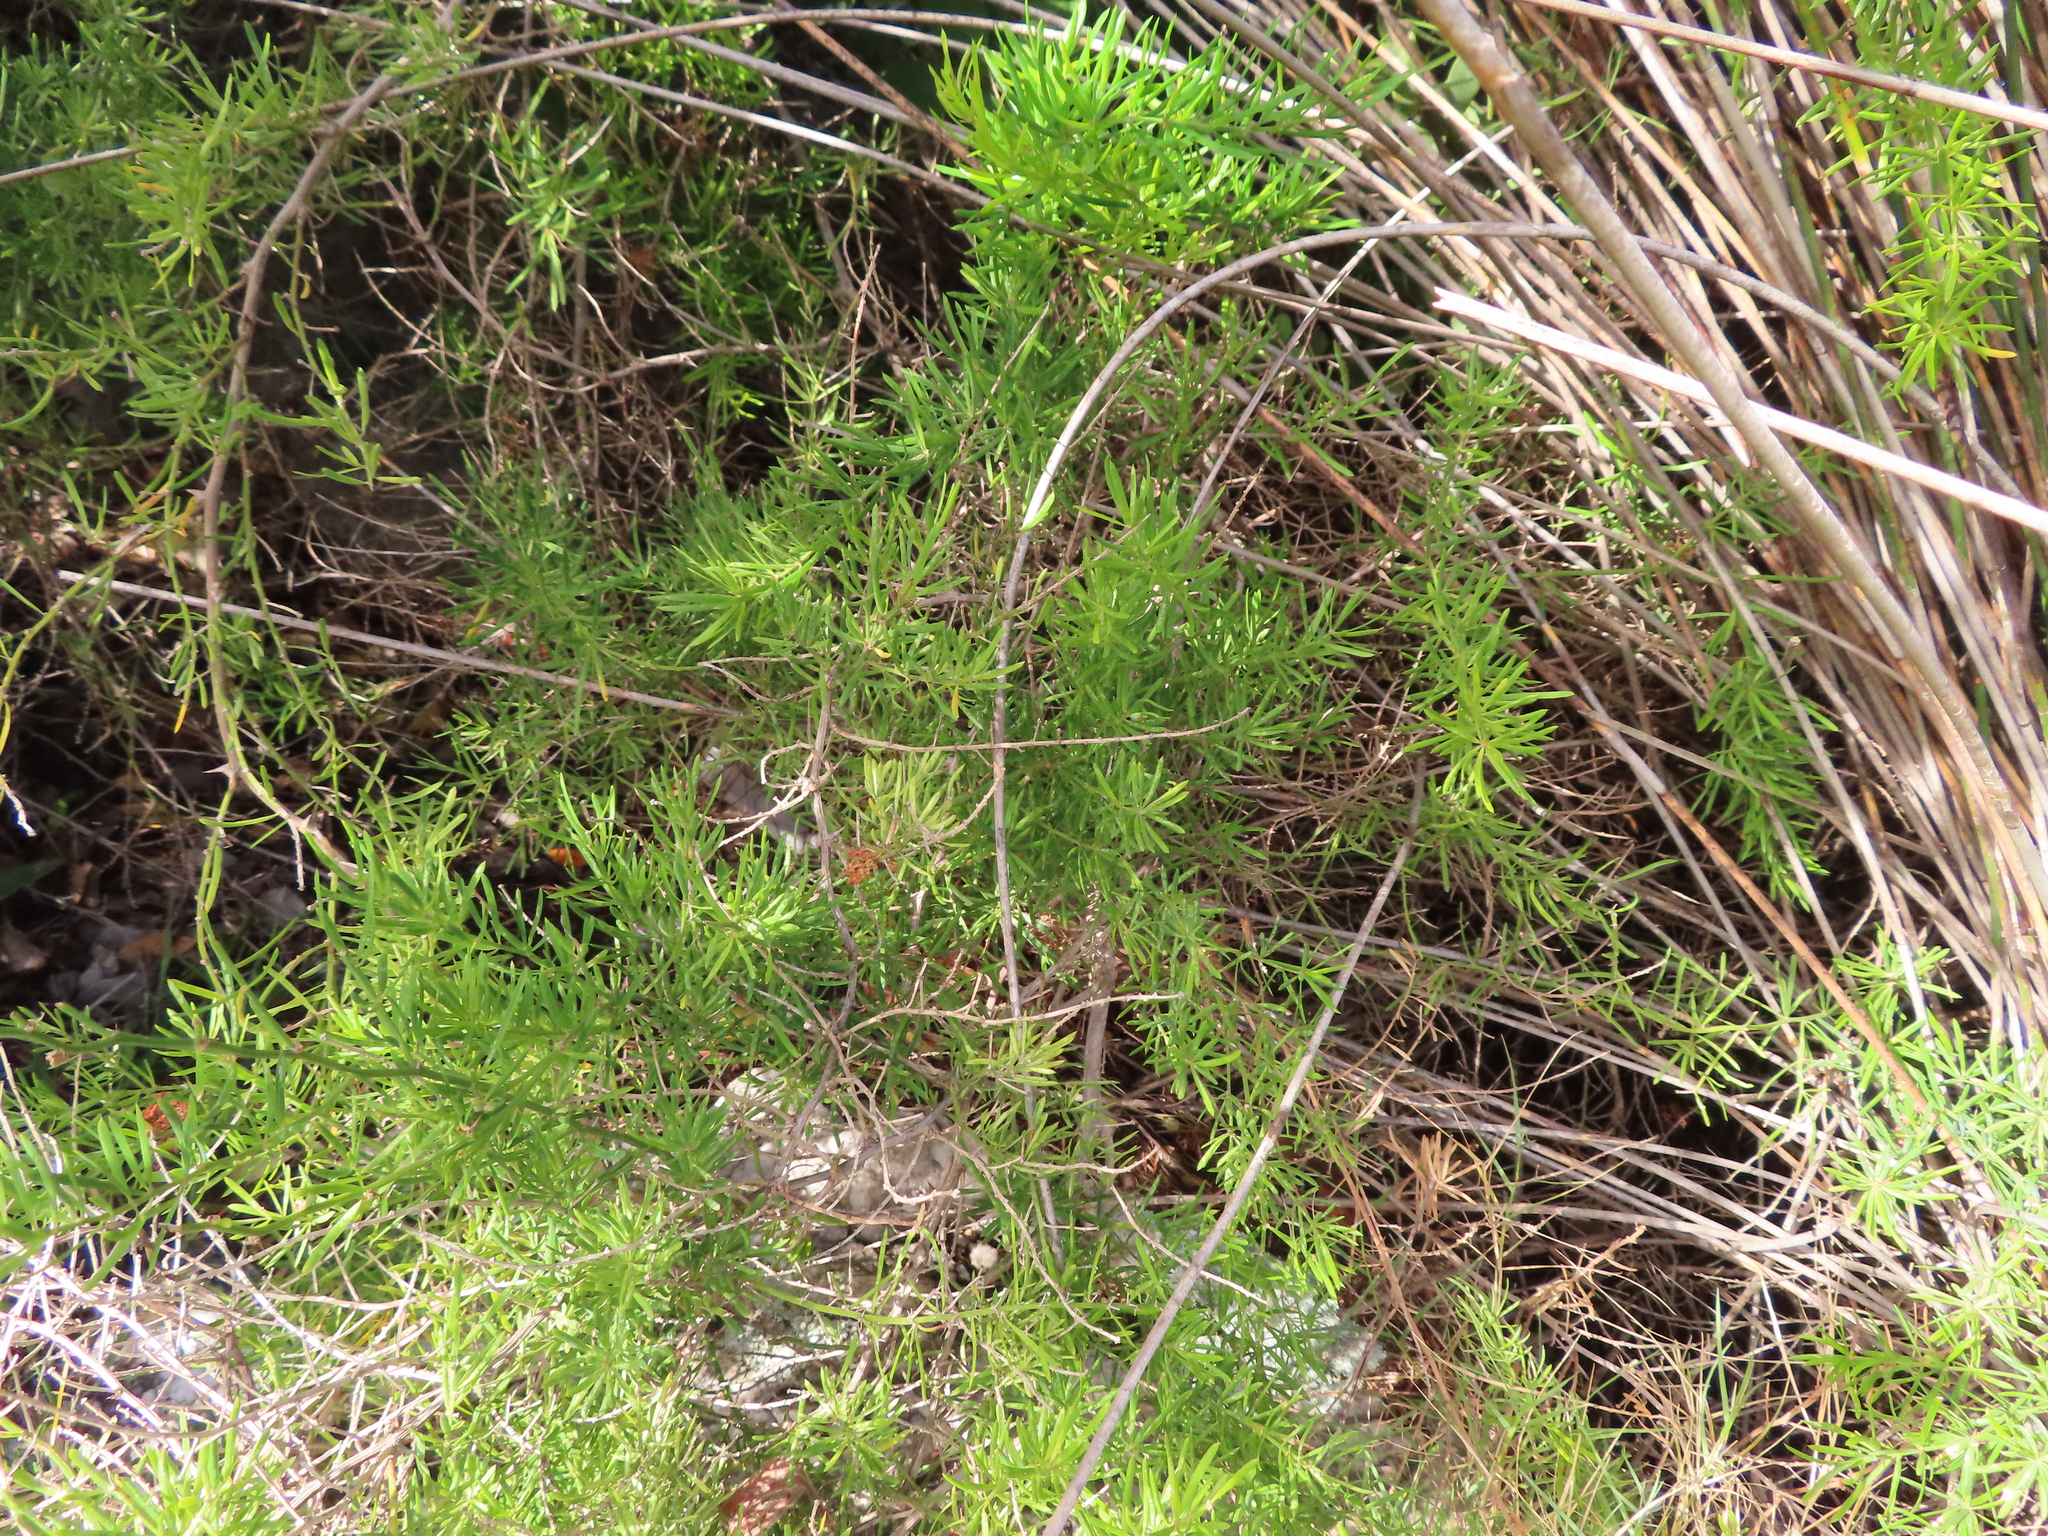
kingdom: Plantae
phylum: Tracheophyta
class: Liliopsida
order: Asparagales
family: Asparagaceae
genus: Asparagus
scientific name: Asparagus aethiopicus
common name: Sprenger's asparagus fern
